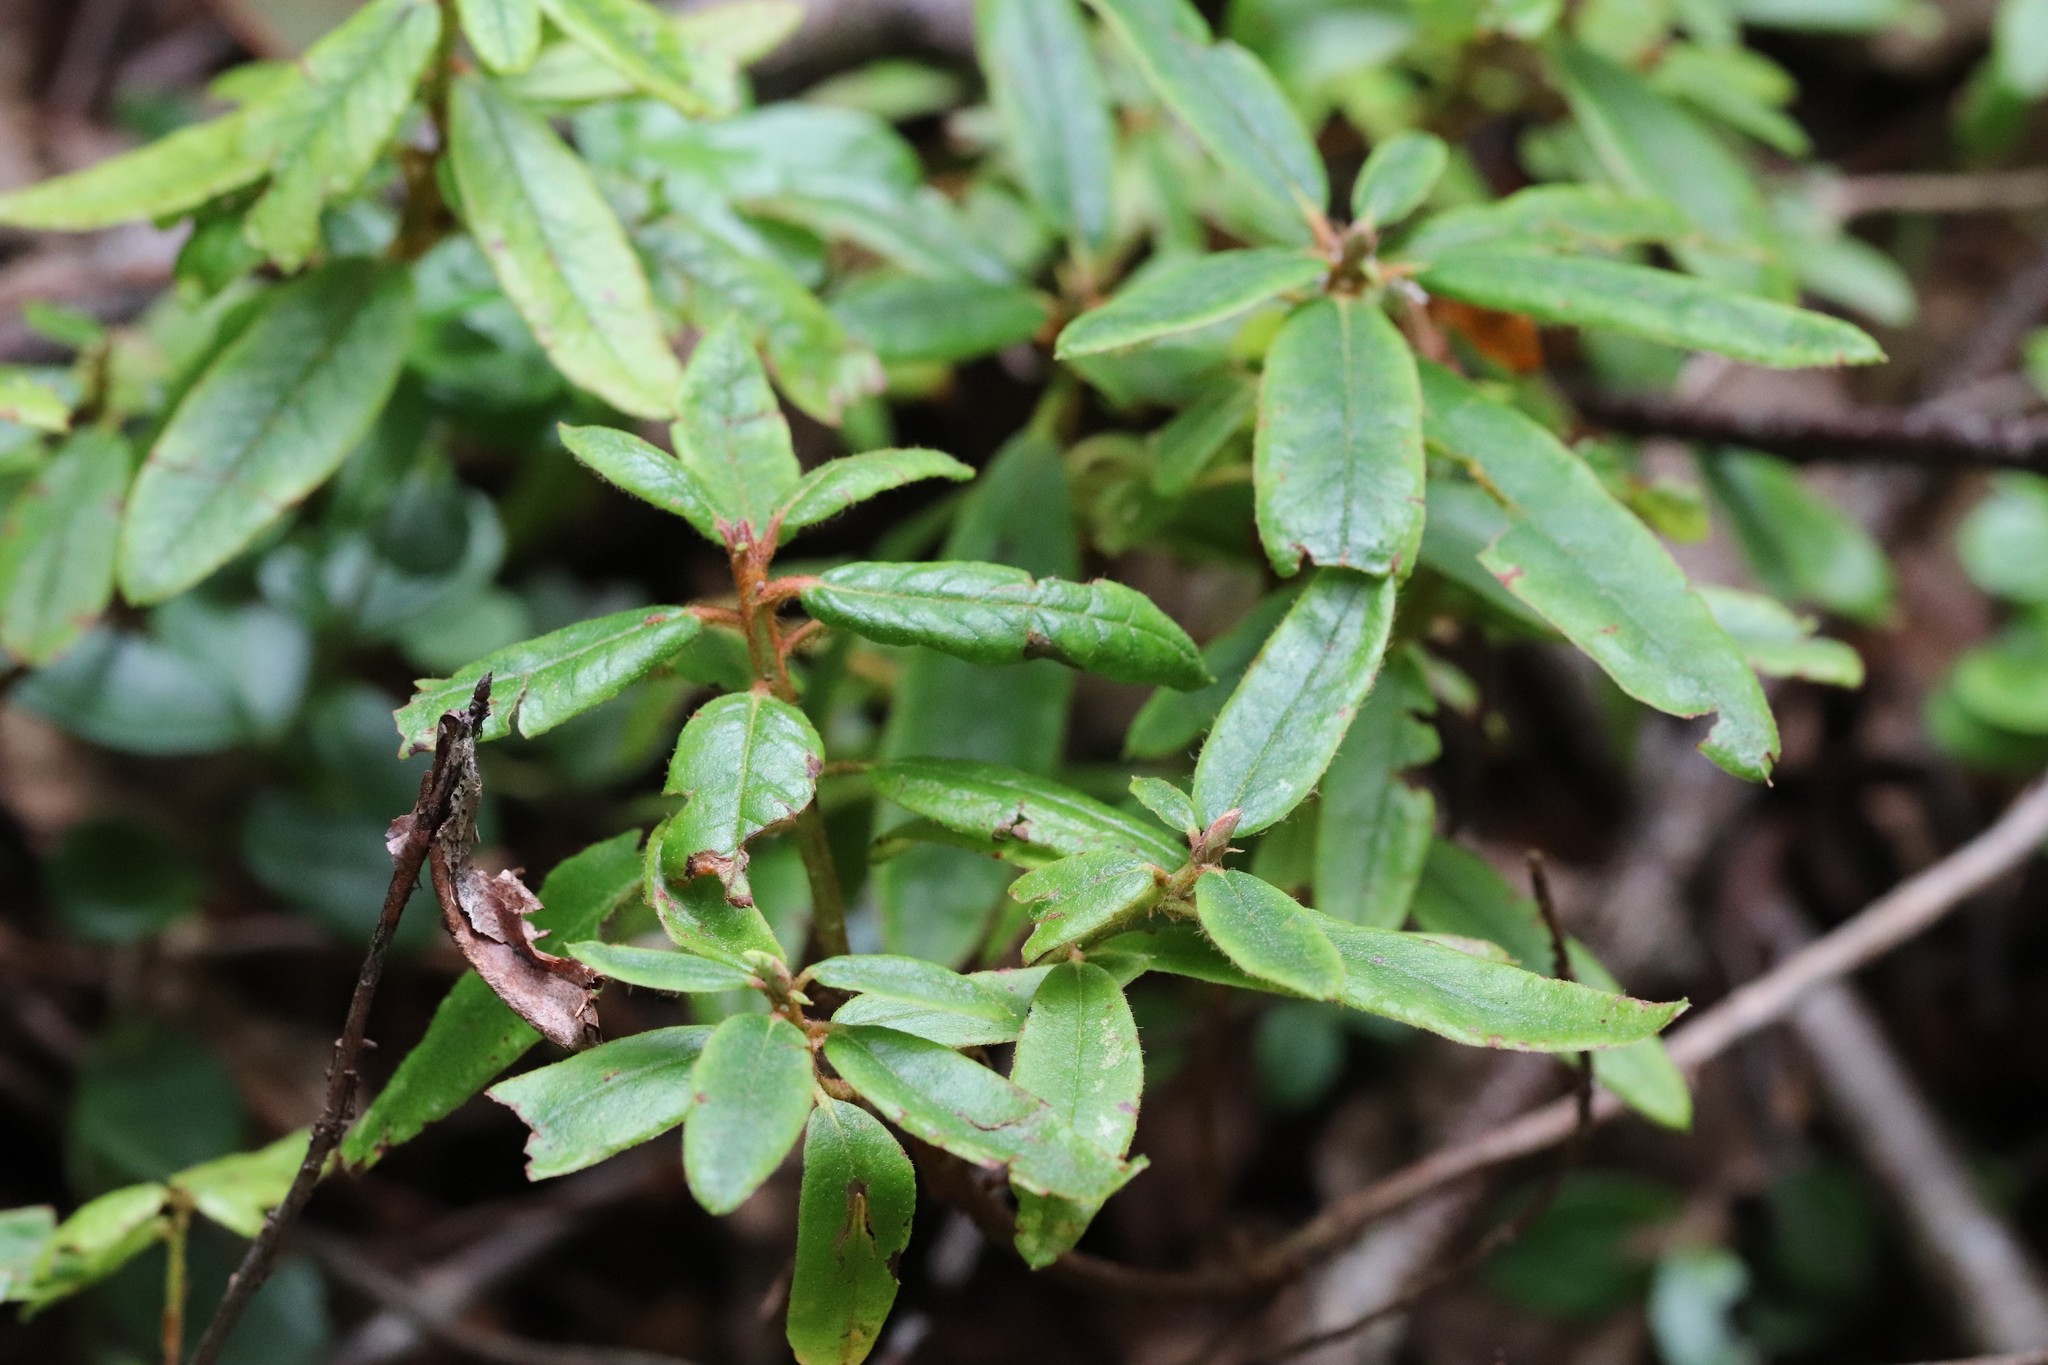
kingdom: Plantae
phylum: Tracheophyta
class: Magnoliopsida
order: Ericales
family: Ericaceae
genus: Rhododendron
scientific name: Rhododendron tolmachevii
